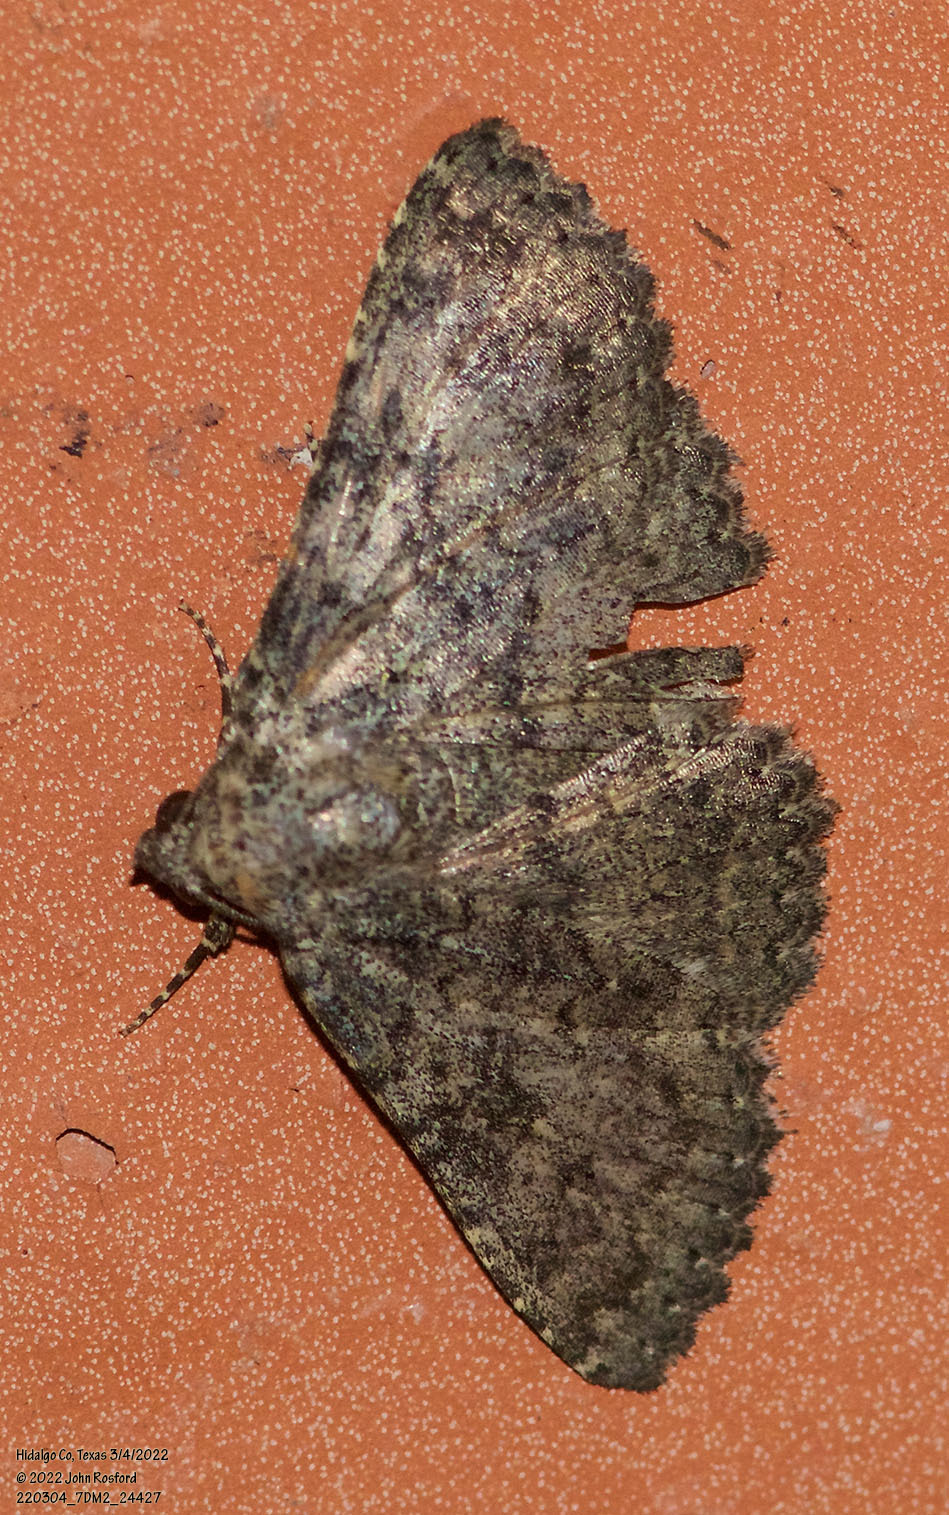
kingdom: Animalia
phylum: Arthropoda
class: Insecta
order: Lepidoptera
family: Erebidae
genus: Matigramma
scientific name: Matigramma obscurior
